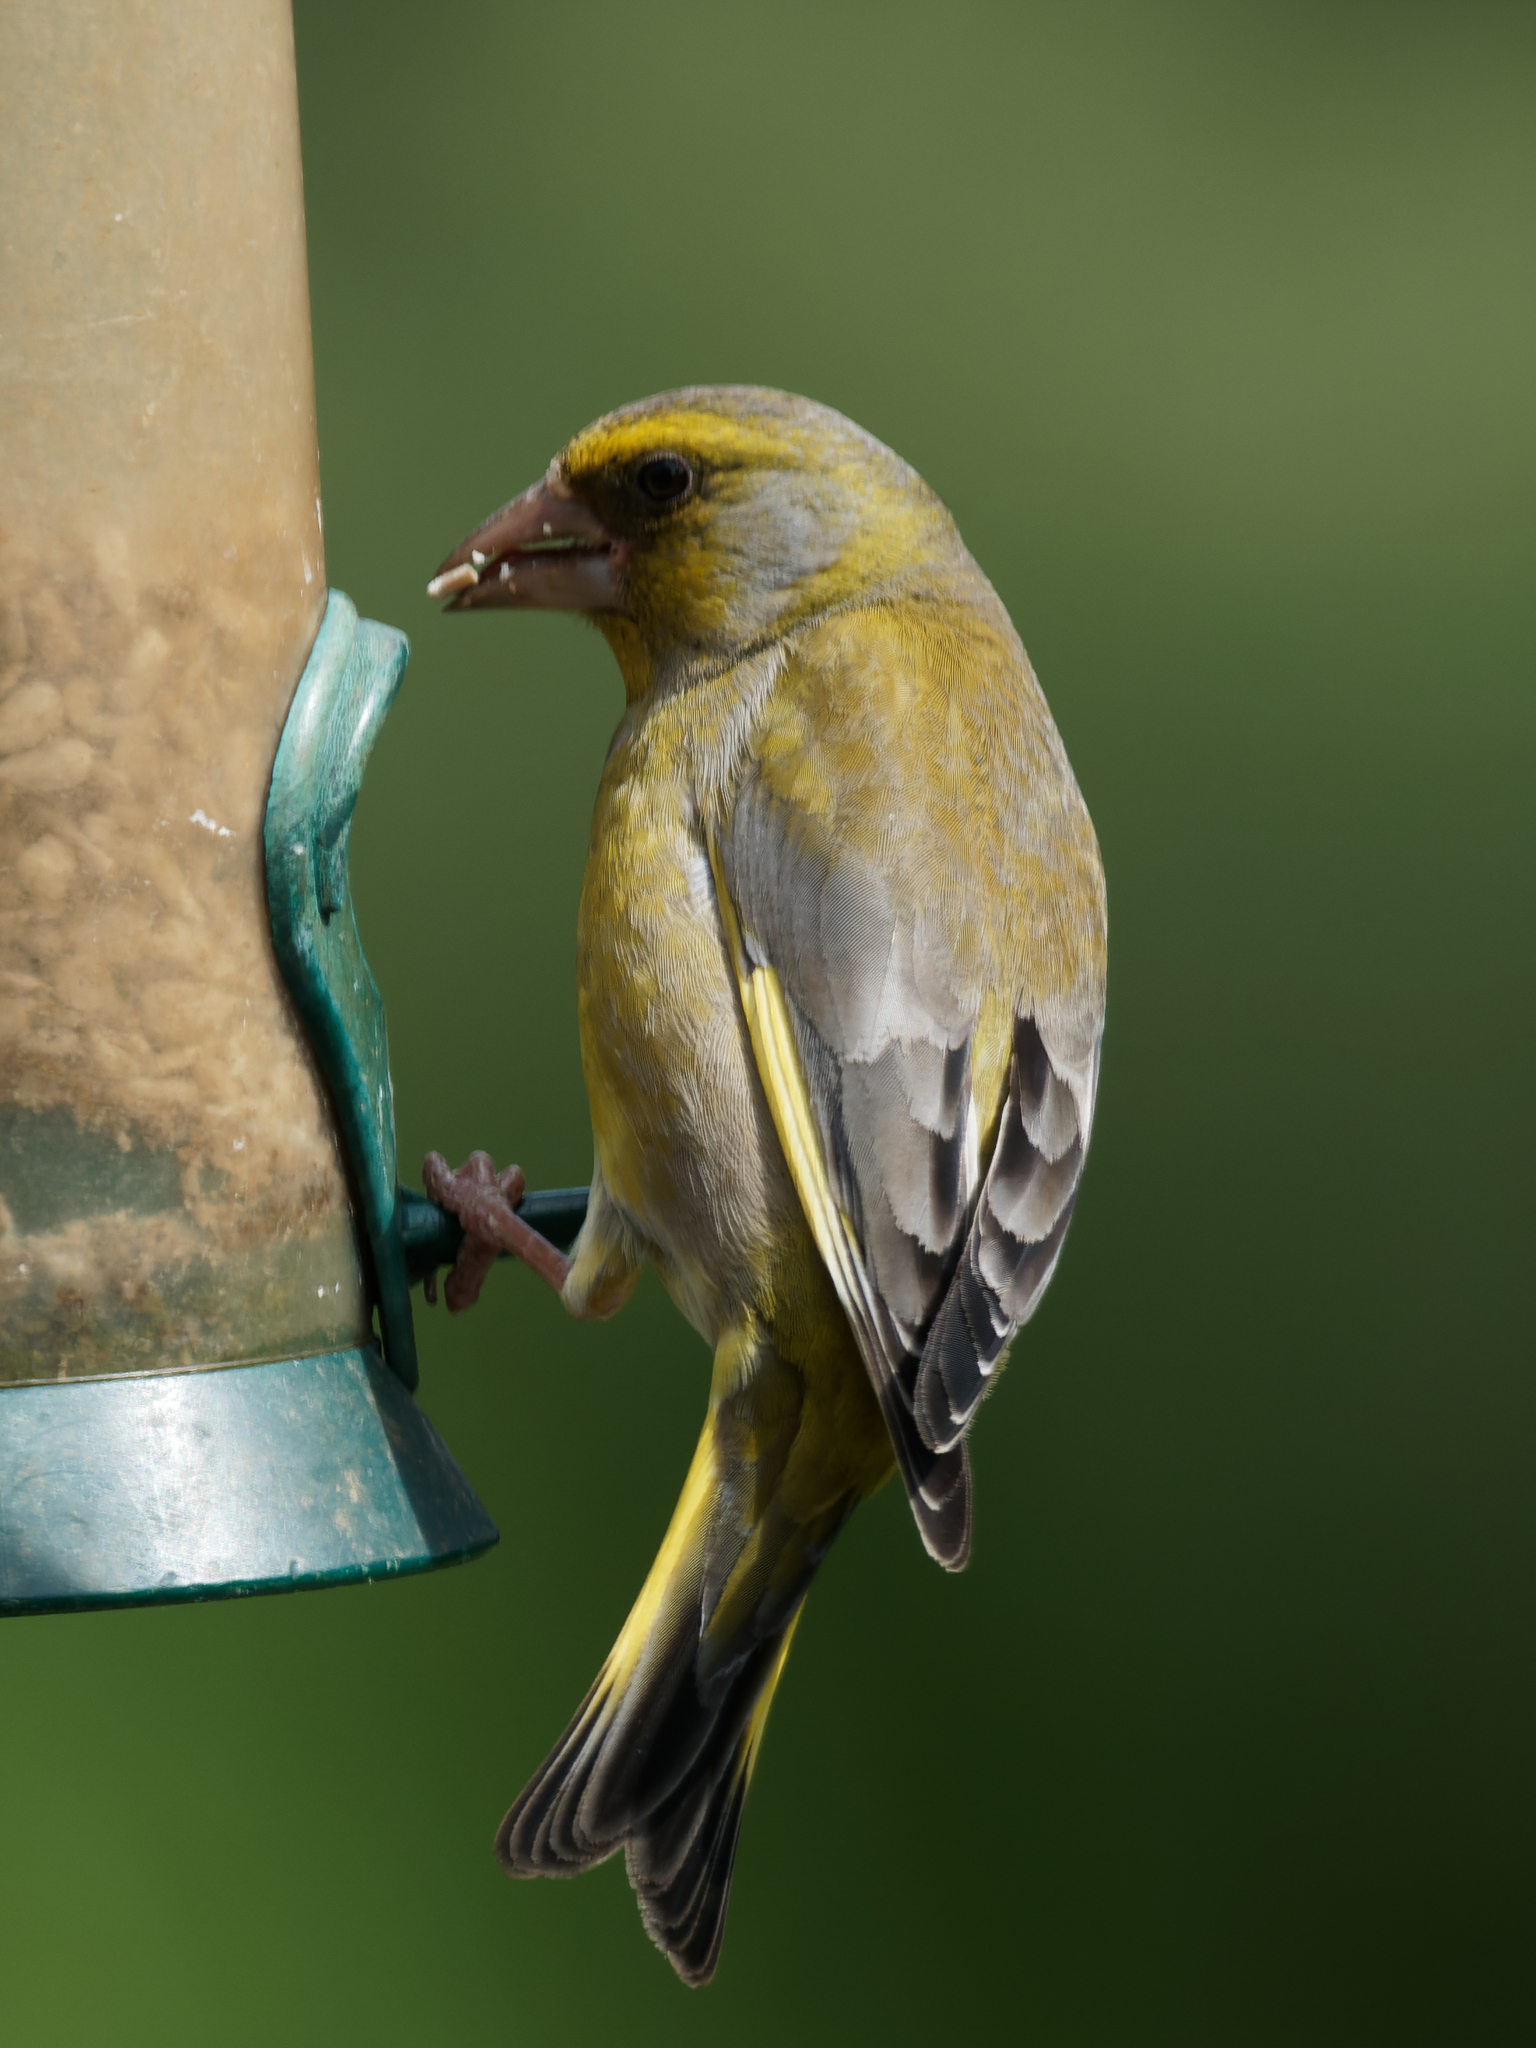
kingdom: Plantae
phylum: Tracheophyta
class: Liliopsida
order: Poales
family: Poaceae
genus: Chloris
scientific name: Chloris chloris
